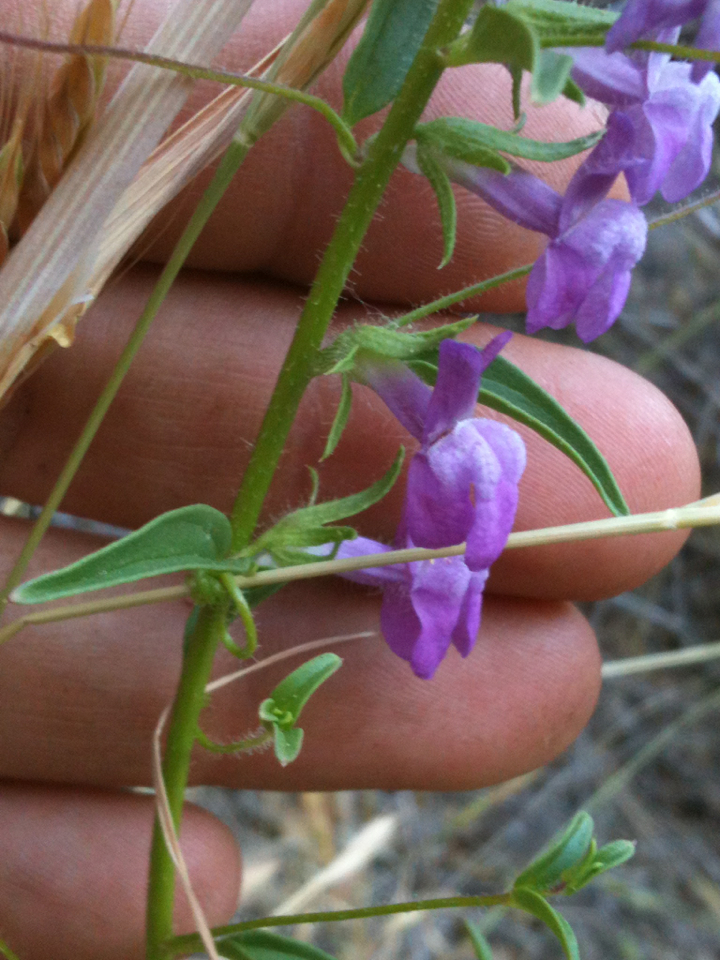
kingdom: Plantae
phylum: Tracheophyta
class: Magnoliopsida
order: Lamiales
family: Plantaginaceae
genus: Sairocarpus
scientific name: Sairocarpus vexillocalyculatus
